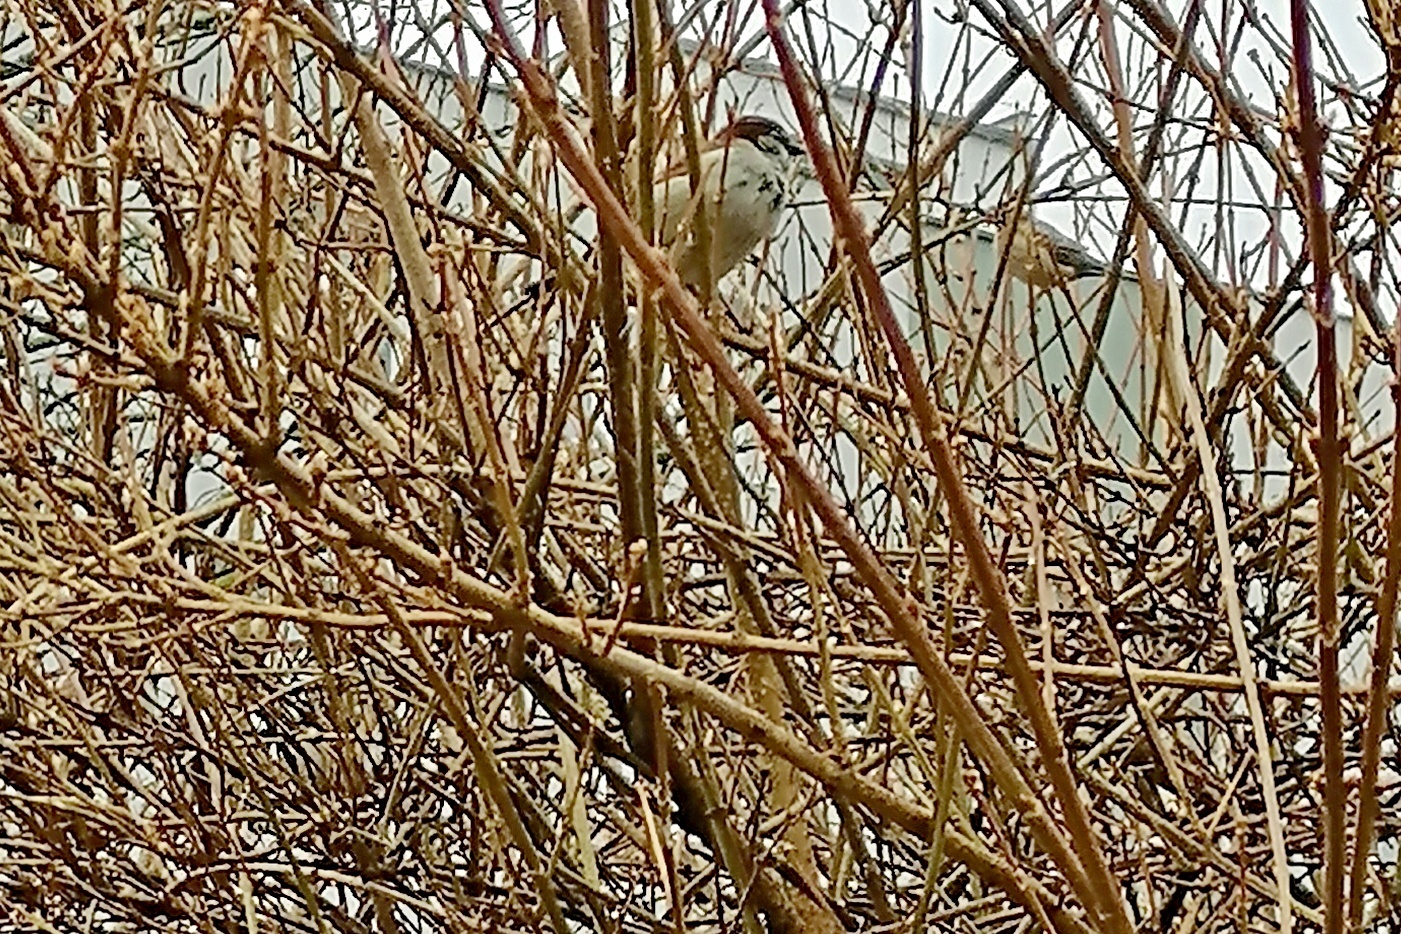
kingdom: Animalia
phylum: Chordata
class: Aves
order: Passeriformes
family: Passeridae
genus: Passer
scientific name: Passer domesticus
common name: House sparrow
